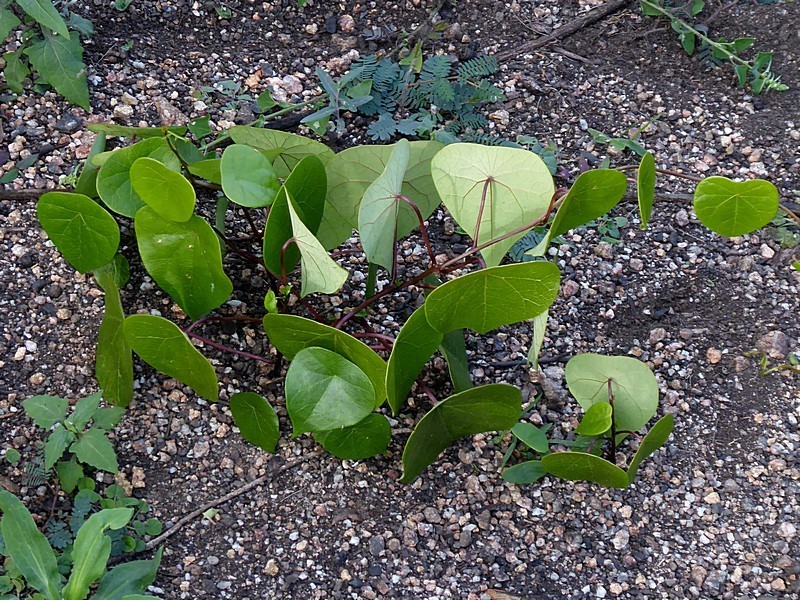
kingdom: Plantae
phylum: Tracheophyta
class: Magnoliopsida
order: Ranunculales
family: Menispermaceae
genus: Stephania
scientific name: Stephania japonica
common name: Snake vine
